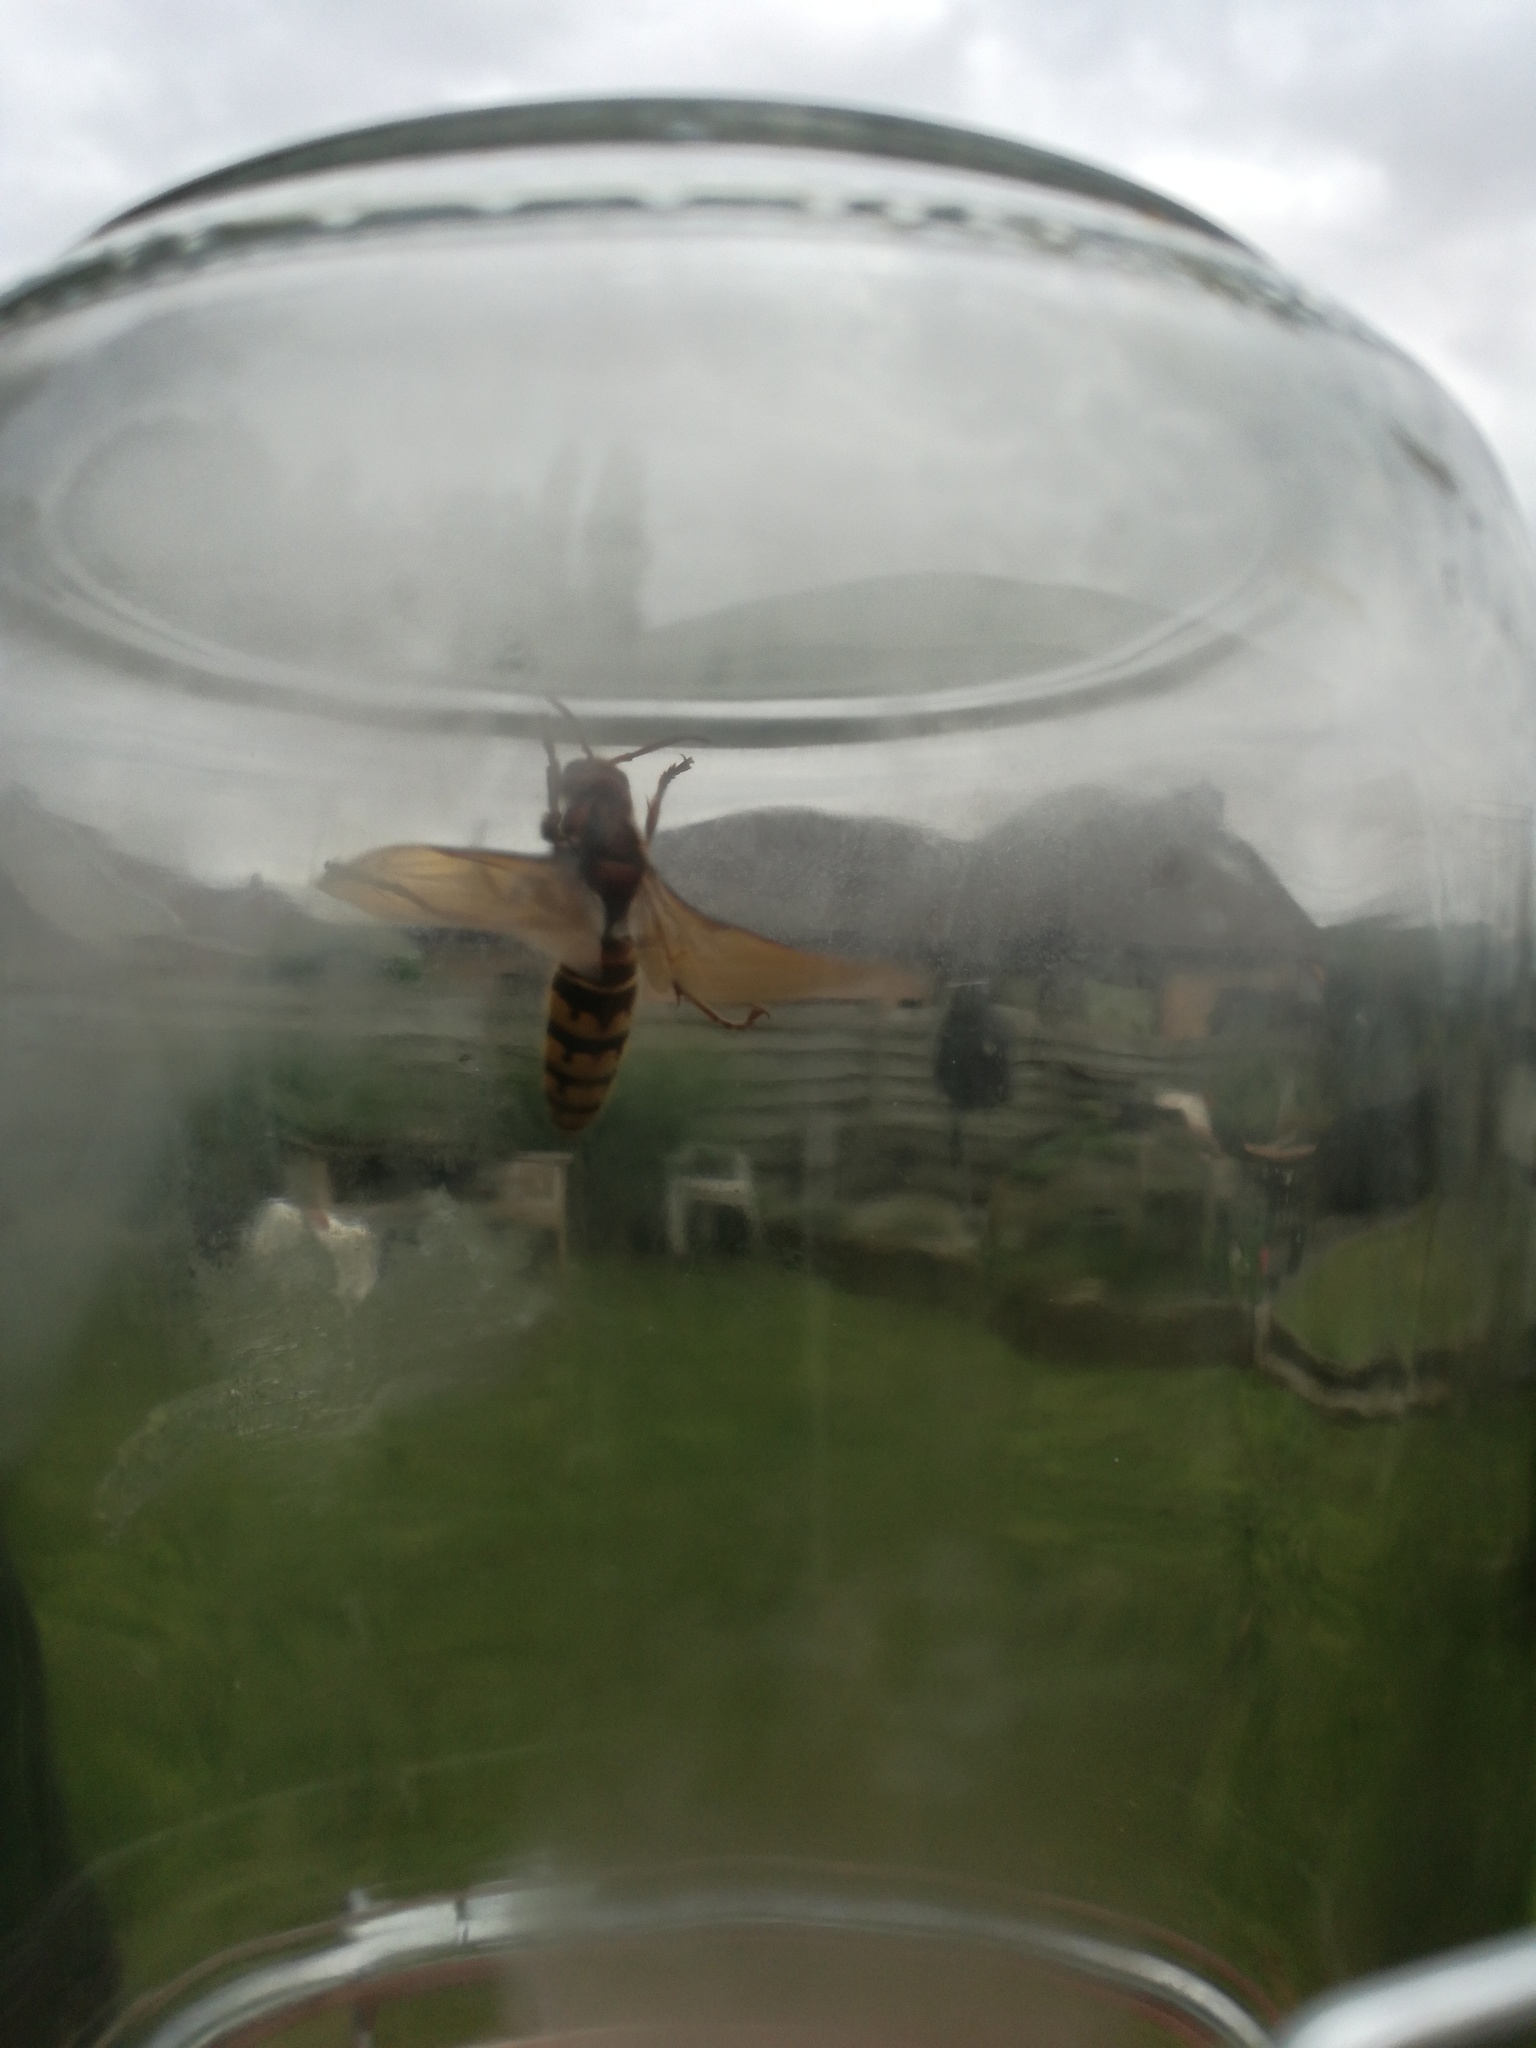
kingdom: Animalia
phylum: Arthropoda
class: Insecta
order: Hymenoptera
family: Vespidae
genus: Vespa
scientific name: Vespa crabro
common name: Hornet
